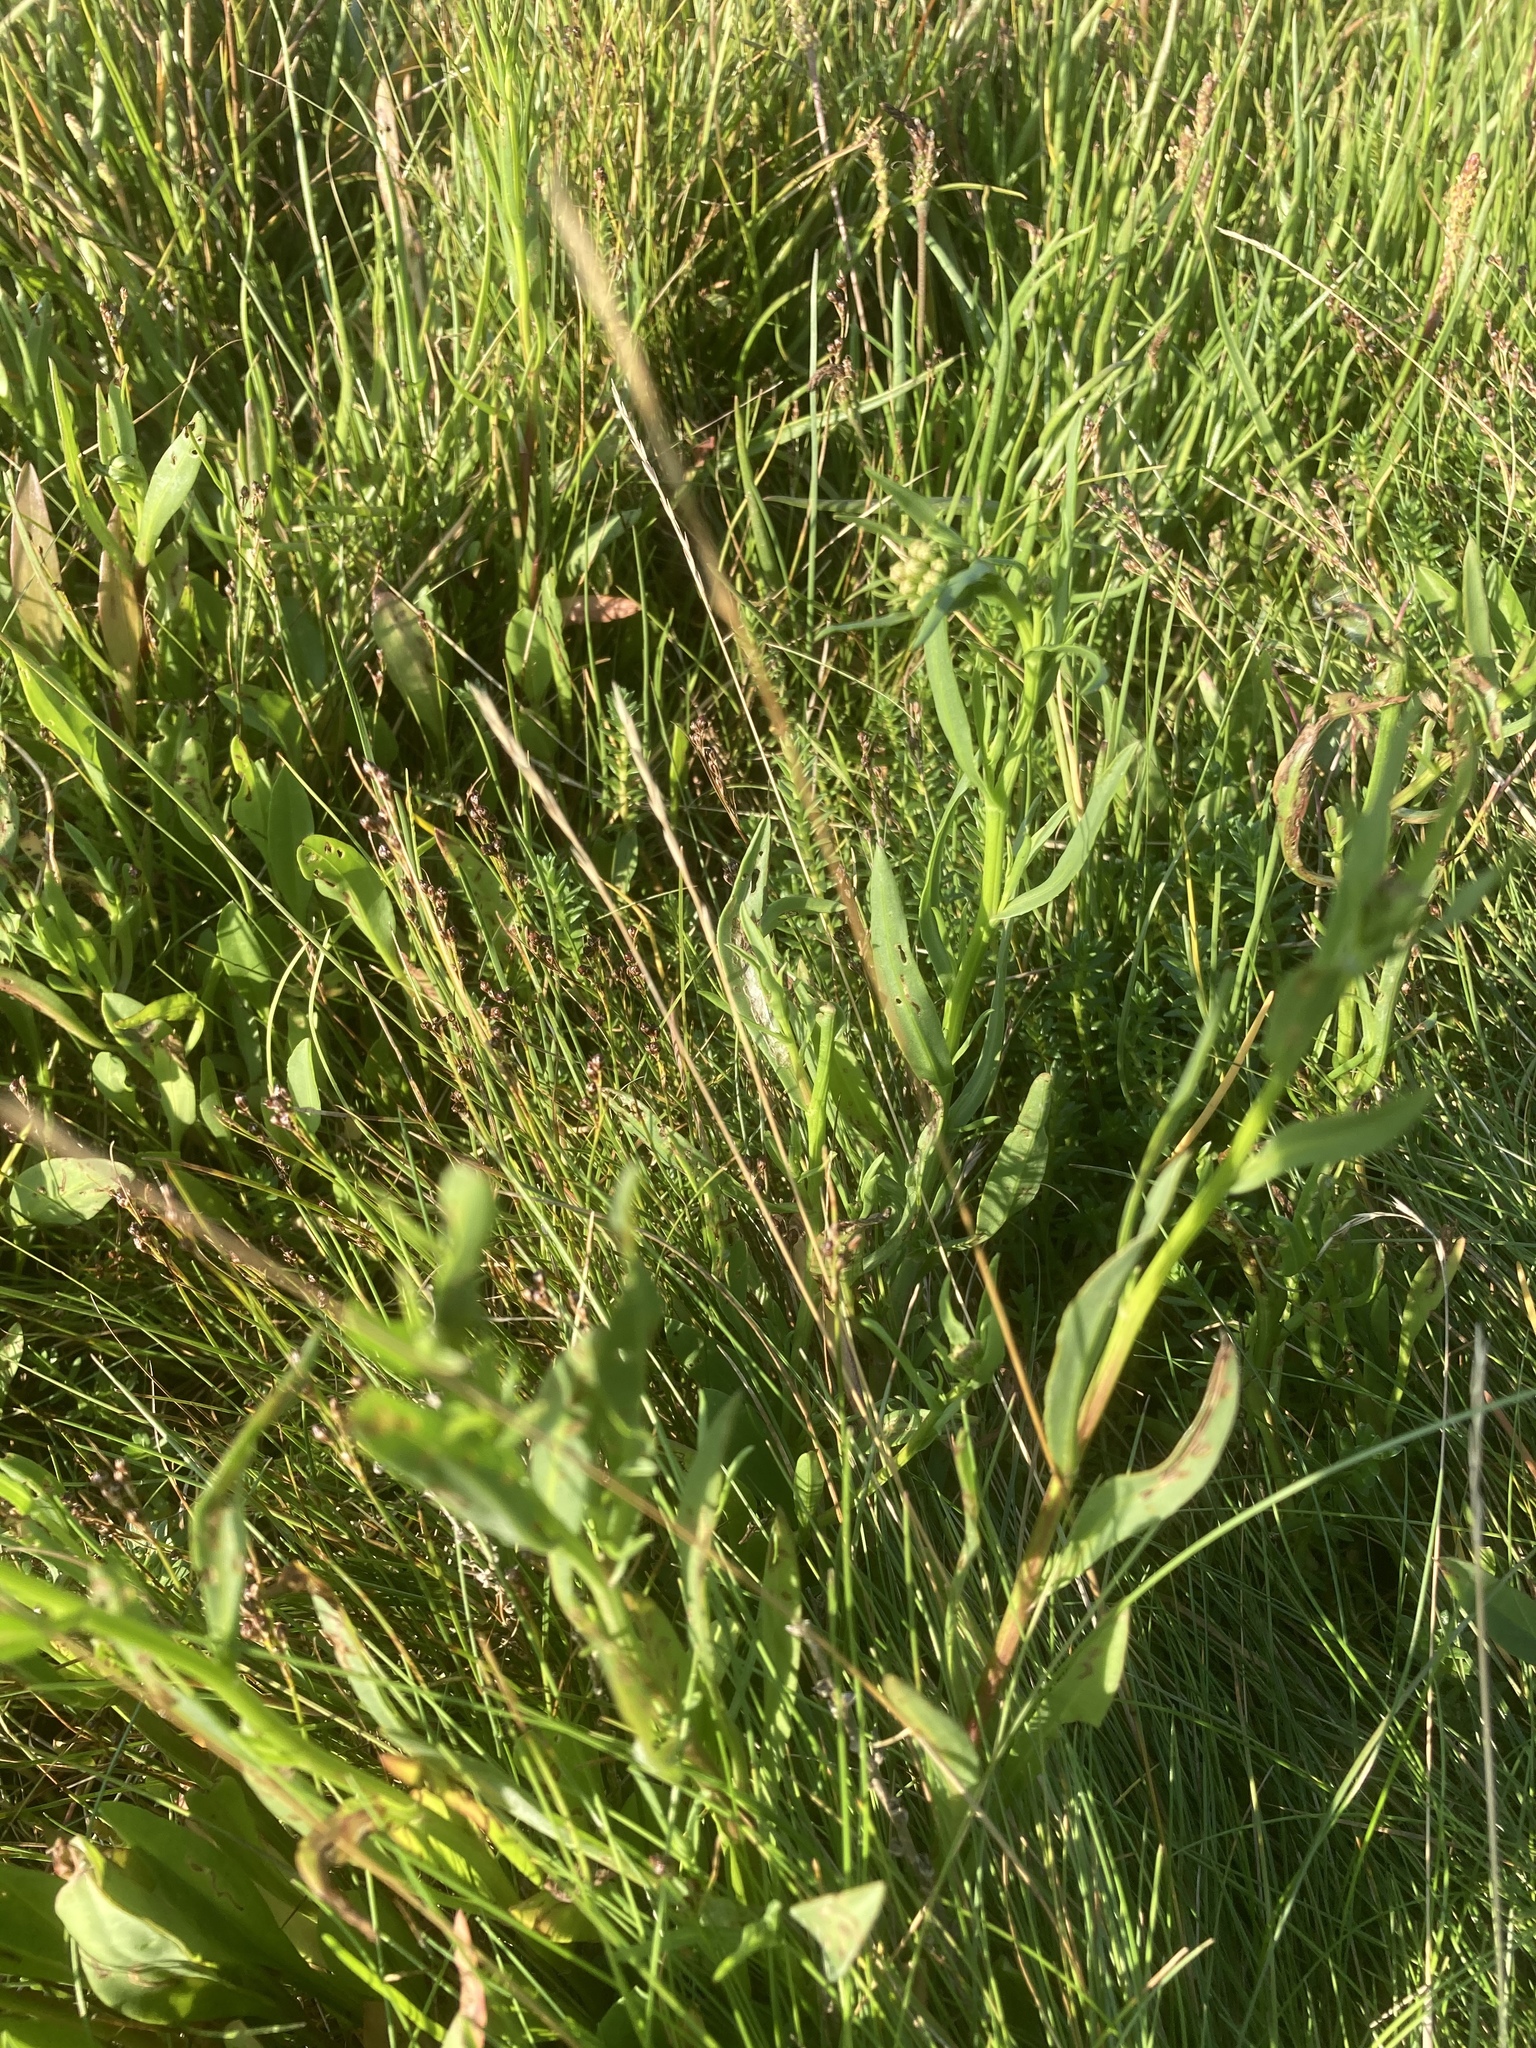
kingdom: Plantae
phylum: Tracheophyta
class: Magnoliopsida
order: Asterales
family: Asteraceae
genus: Tripolium
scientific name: Tripolium pannonicum
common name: Sea aster
